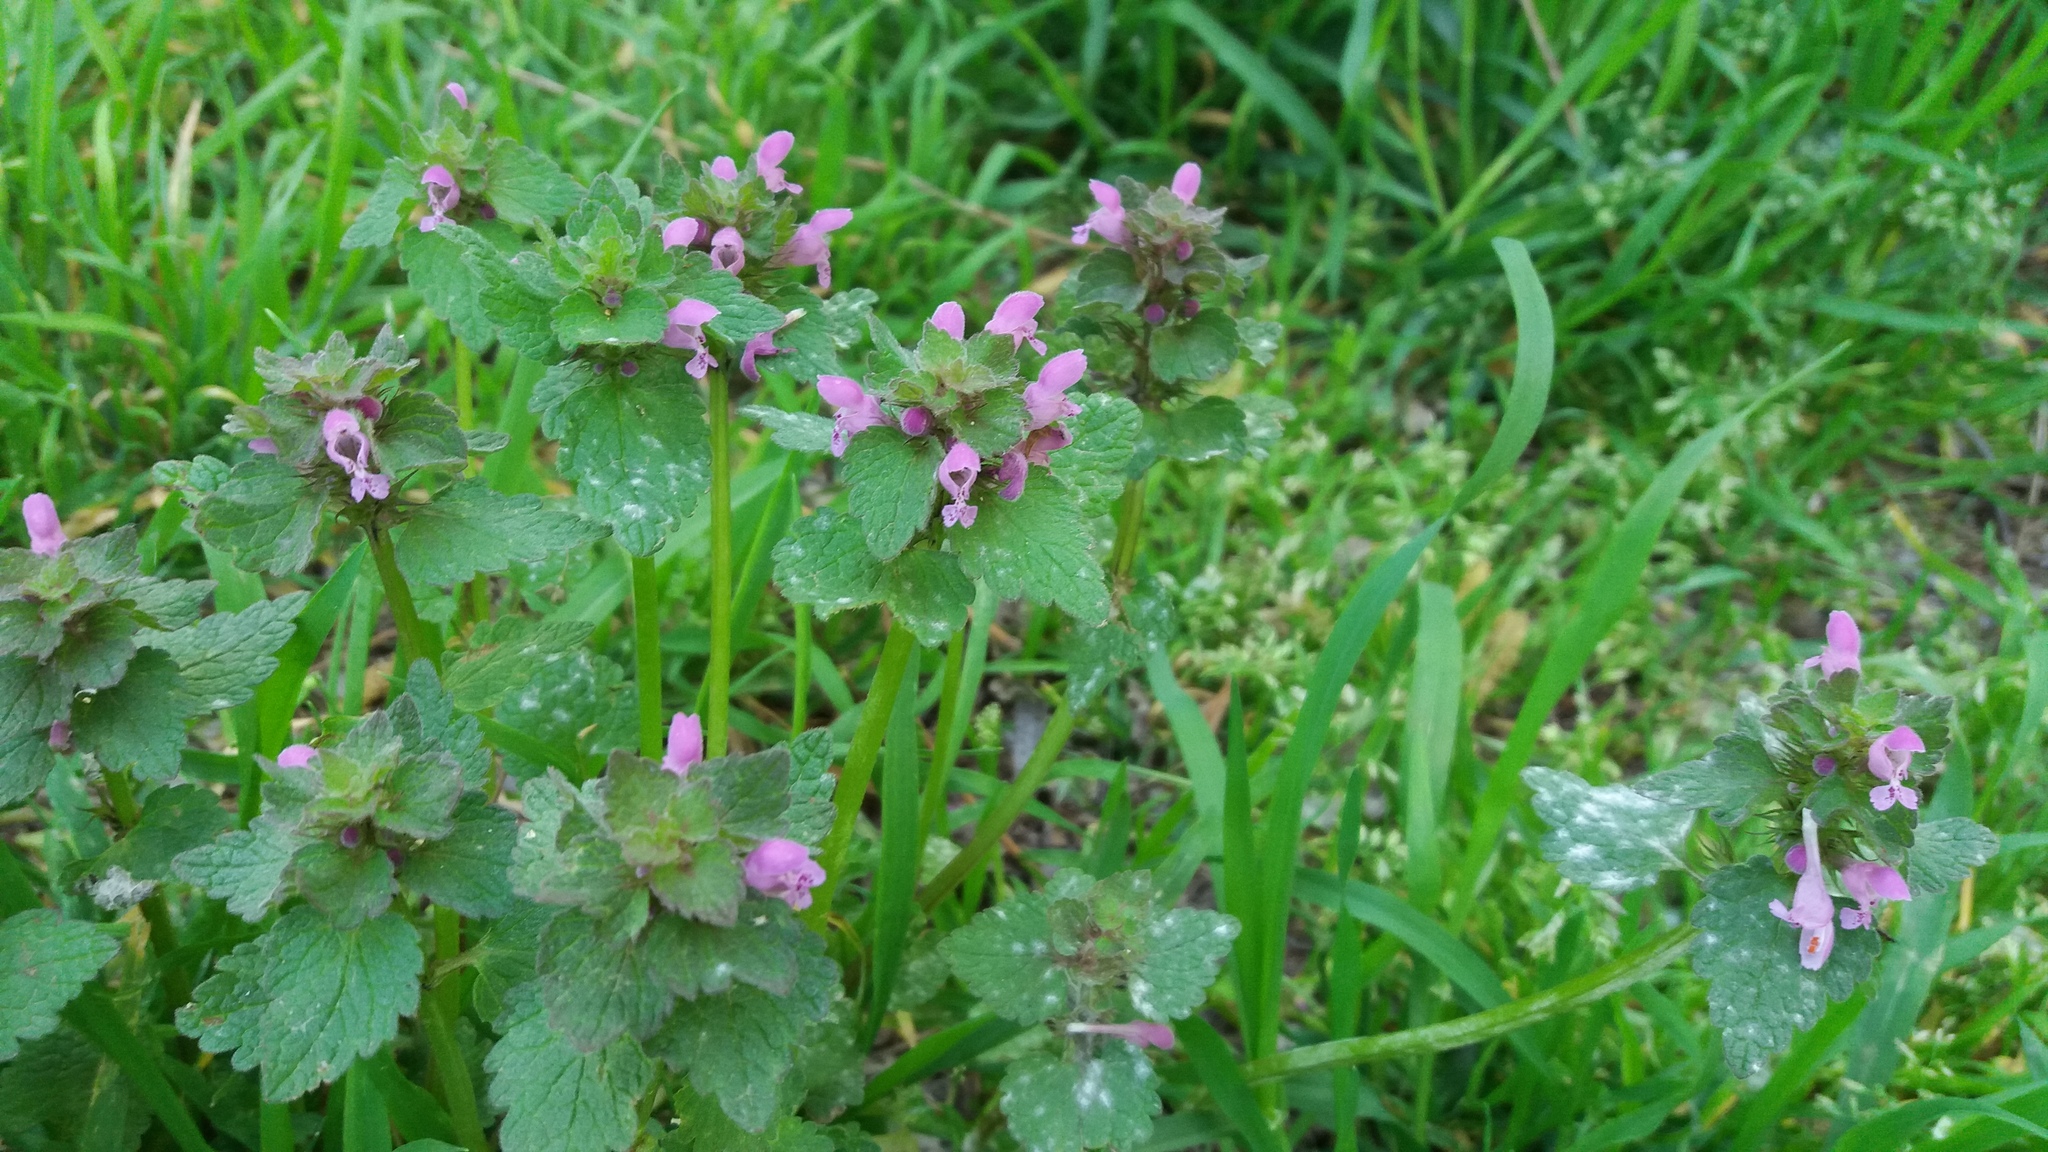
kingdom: Plantae
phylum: Tracheophyta
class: Magnoliopsida
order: Lamiales
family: Lamiaceae
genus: Lamium
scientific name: Lamium purpureum
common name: Red dead-nettle
